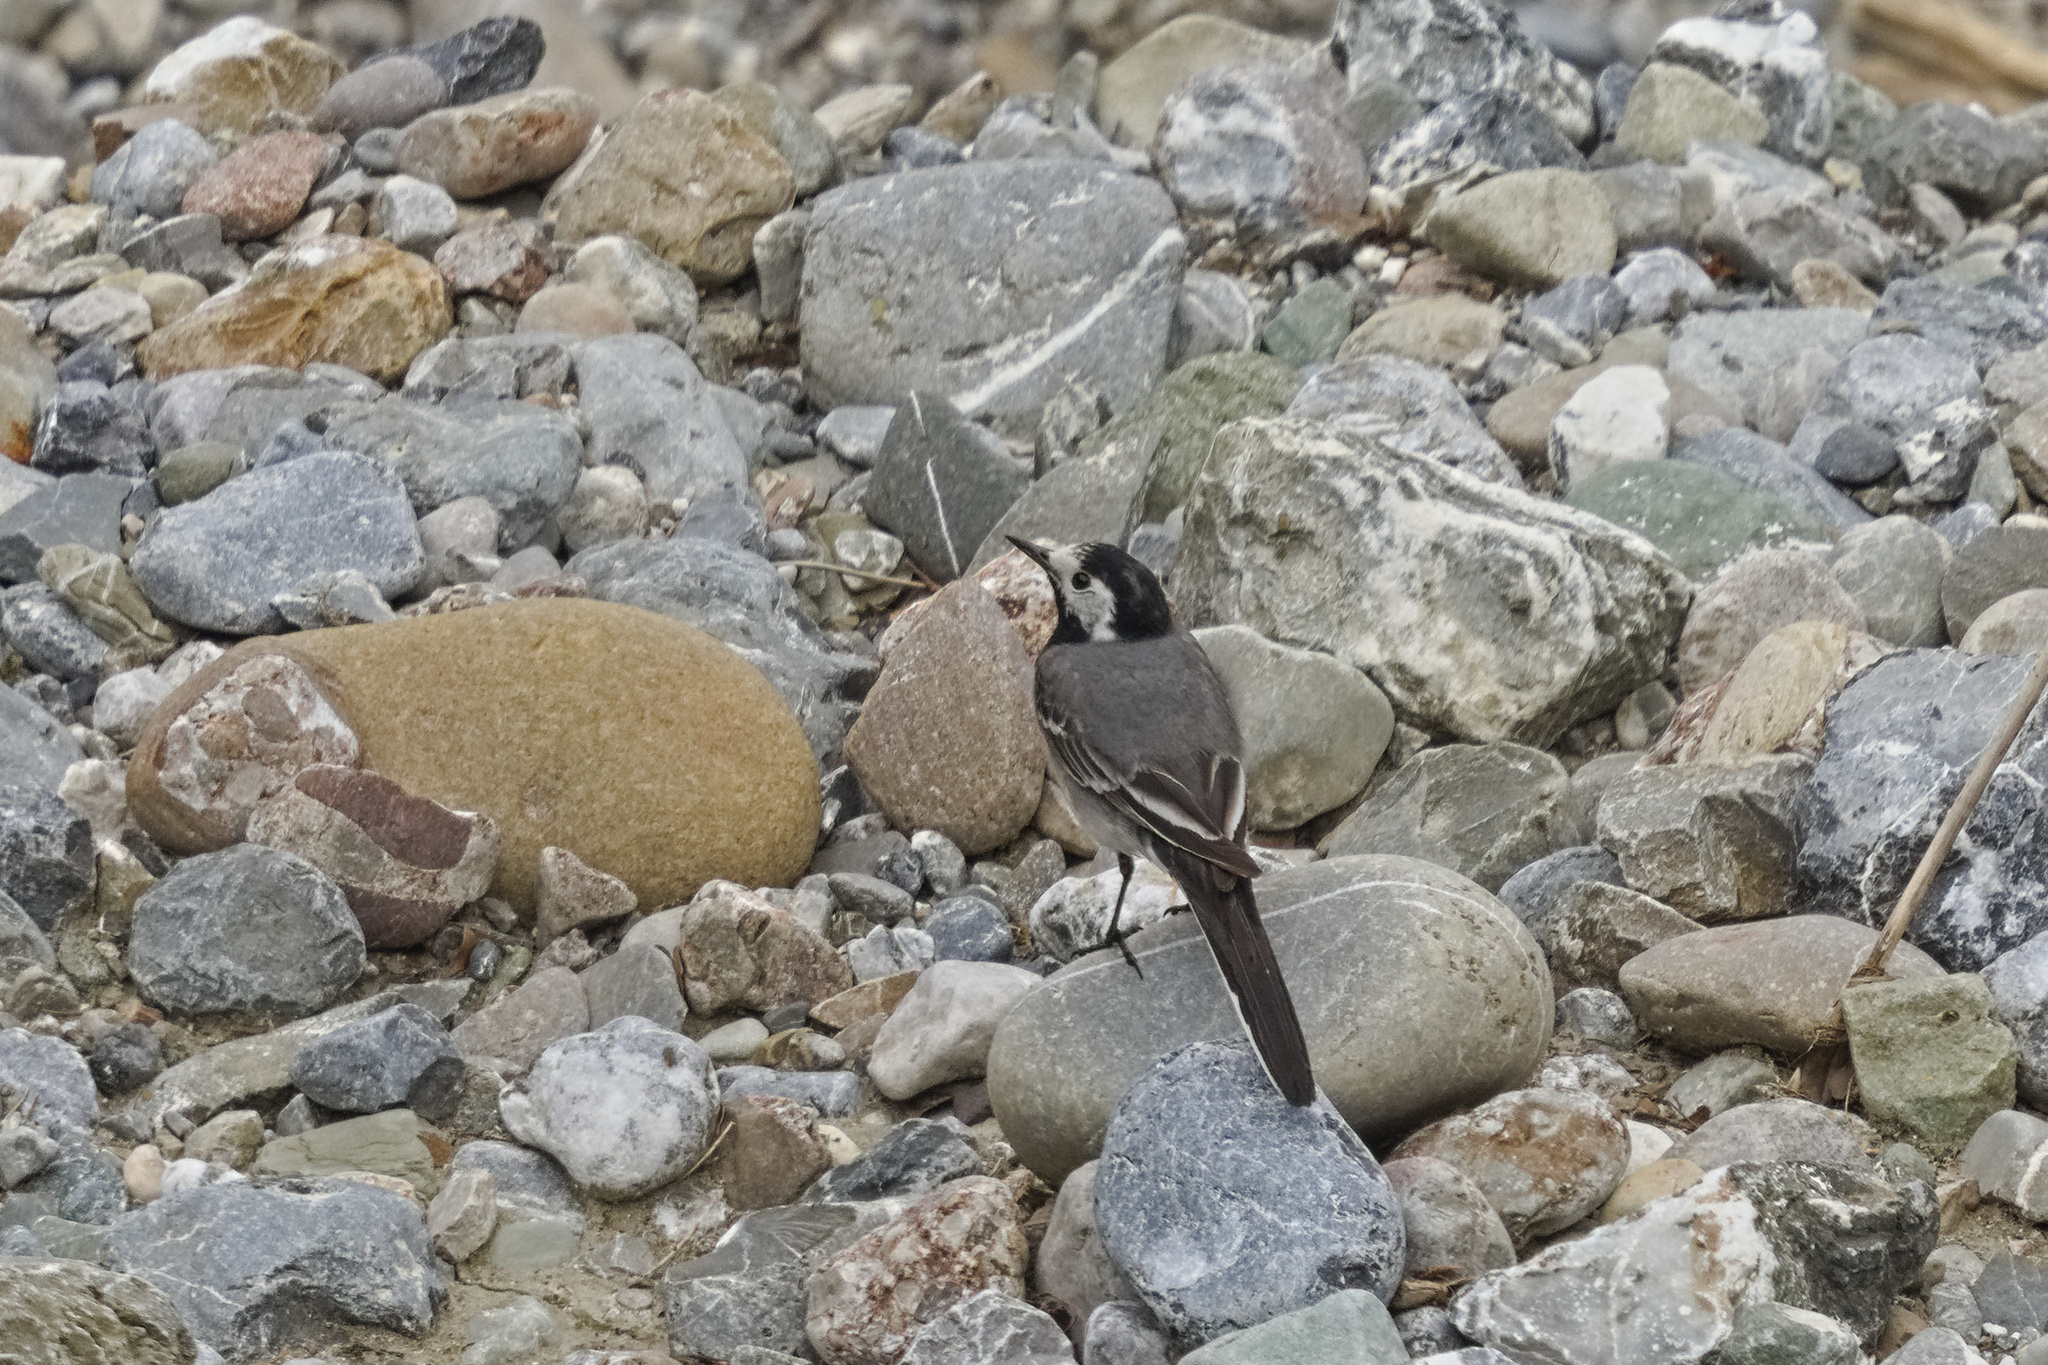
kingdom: Animalia
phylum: Chordata
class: Aves
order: Passeriformes
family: Motacillidae
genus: Motacilla
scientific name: Motacilla alba
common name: White wagtail
